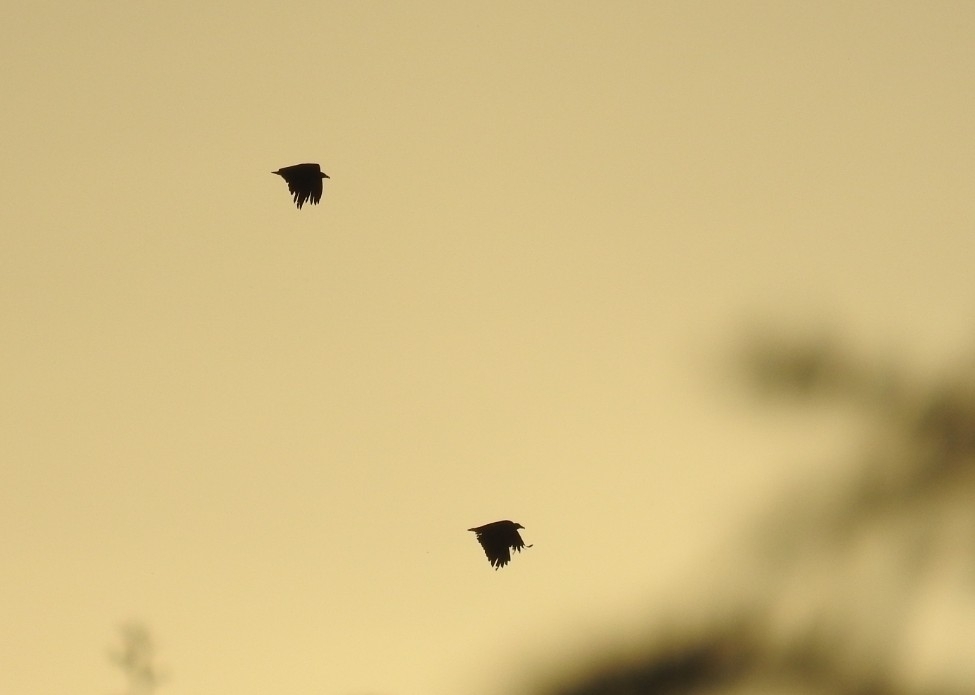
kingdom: Animalia
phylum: Chordata
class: Aves
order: Accipitriformes
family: Cathartidae
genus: Coragyps
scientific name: Coragyps atratus
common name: Black vulture
